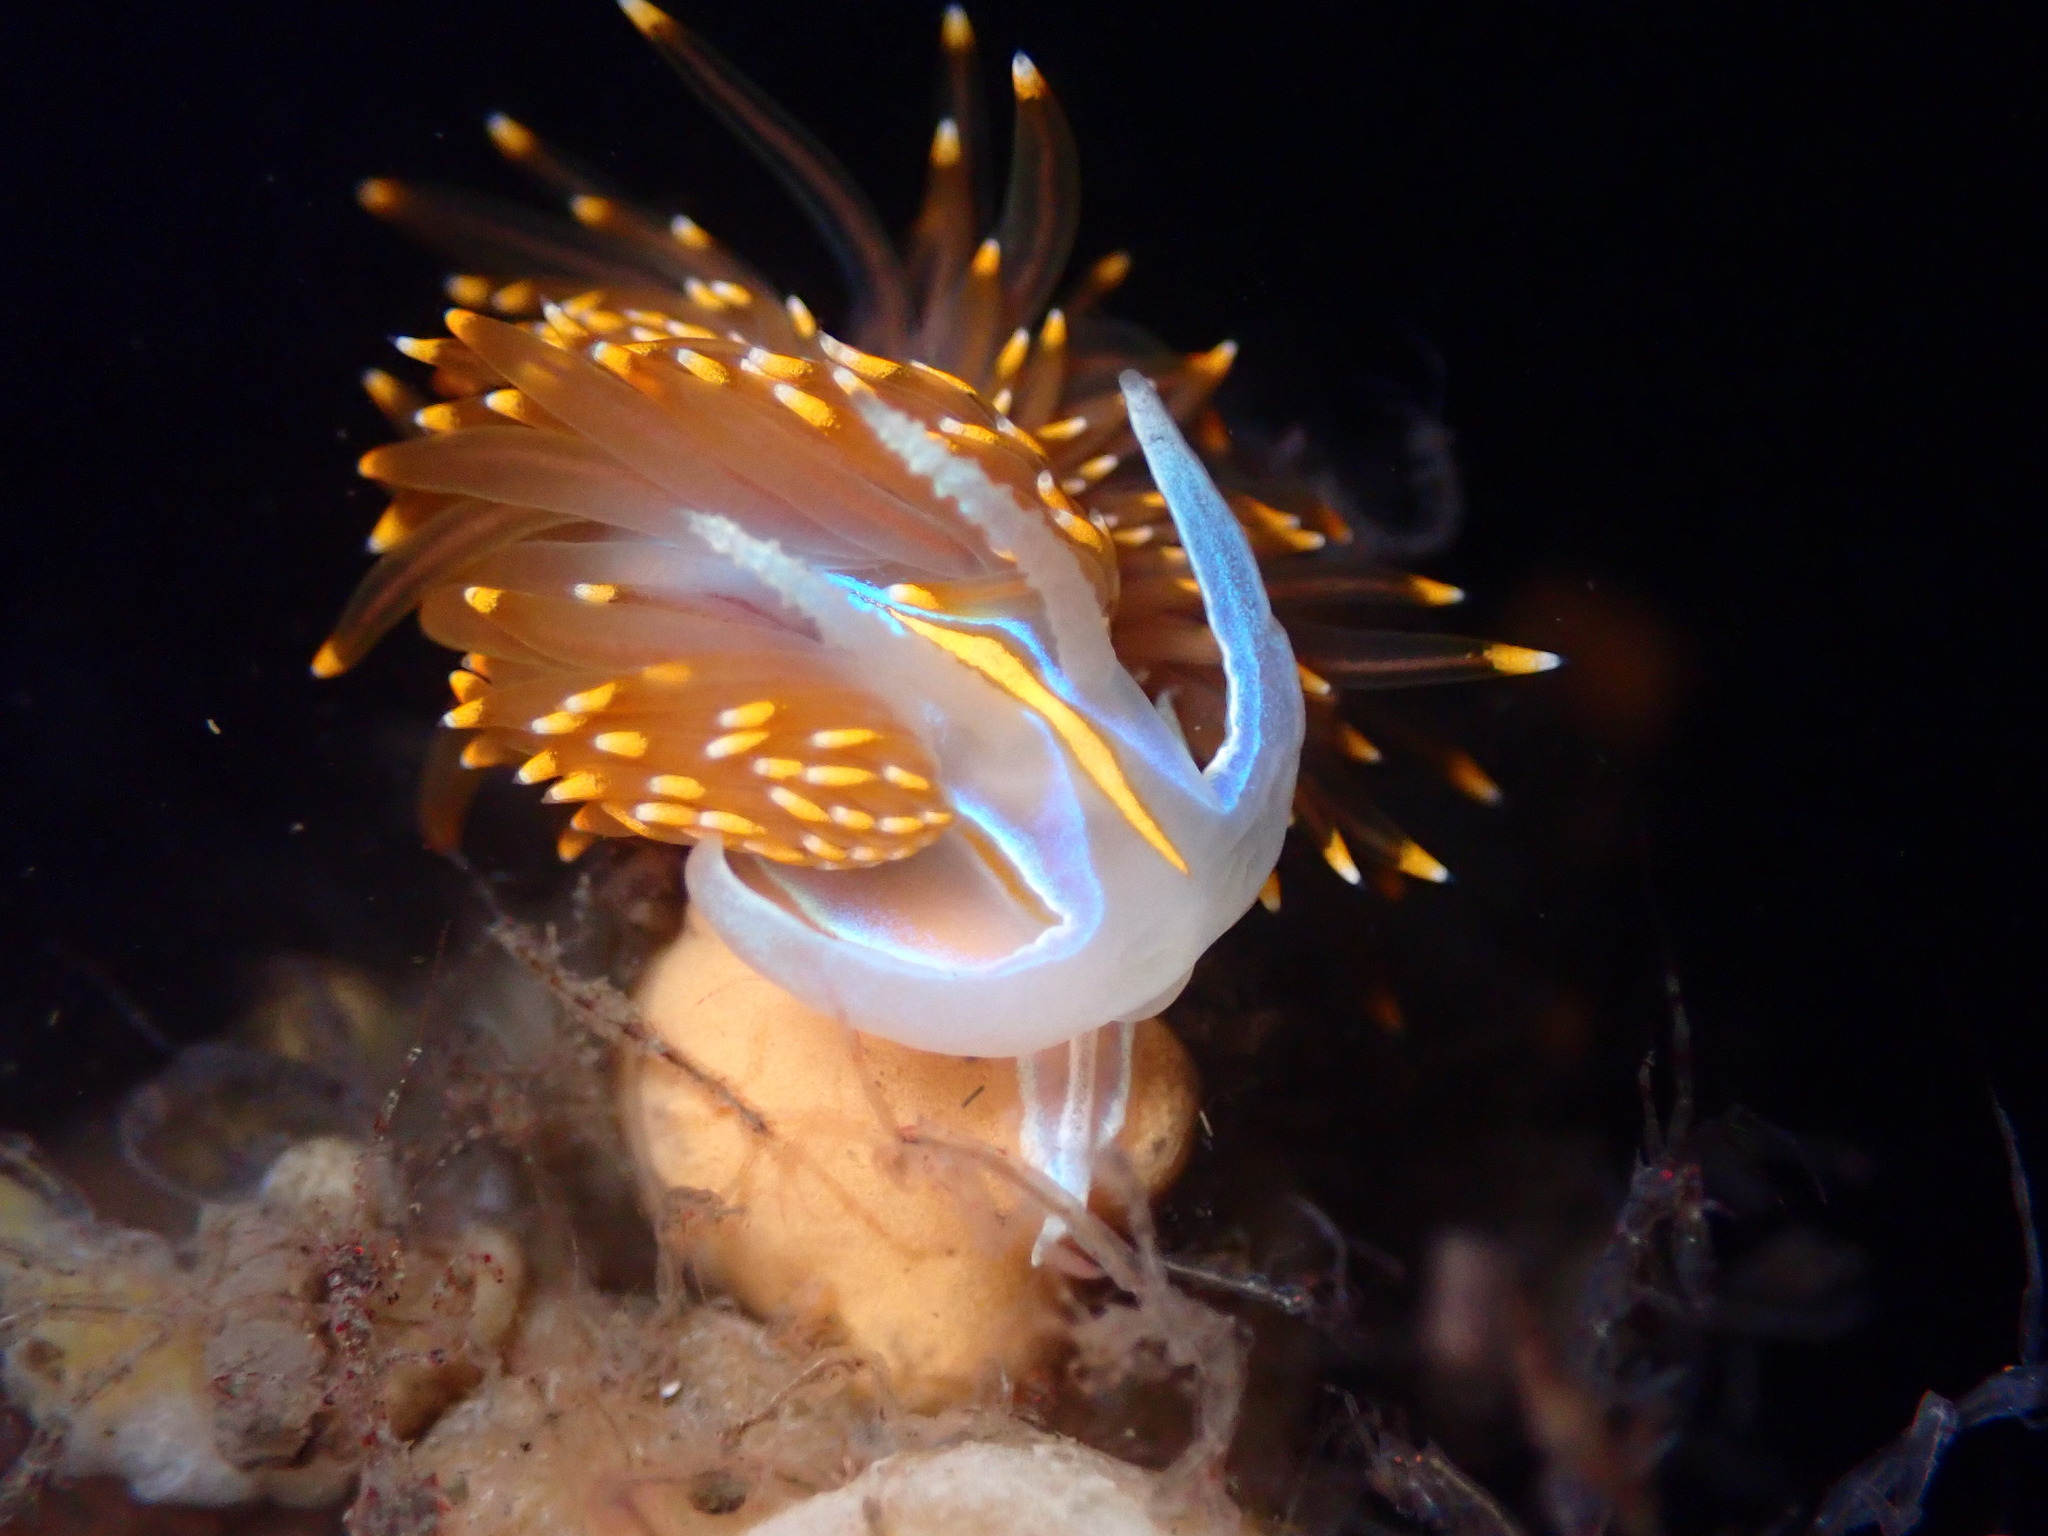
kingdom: Animalia
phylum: Mollusca
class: Gastropoda
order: Nudibranchia
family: Myrrhinidae
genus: Hermissenda
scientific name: Hermissenda opalescens
